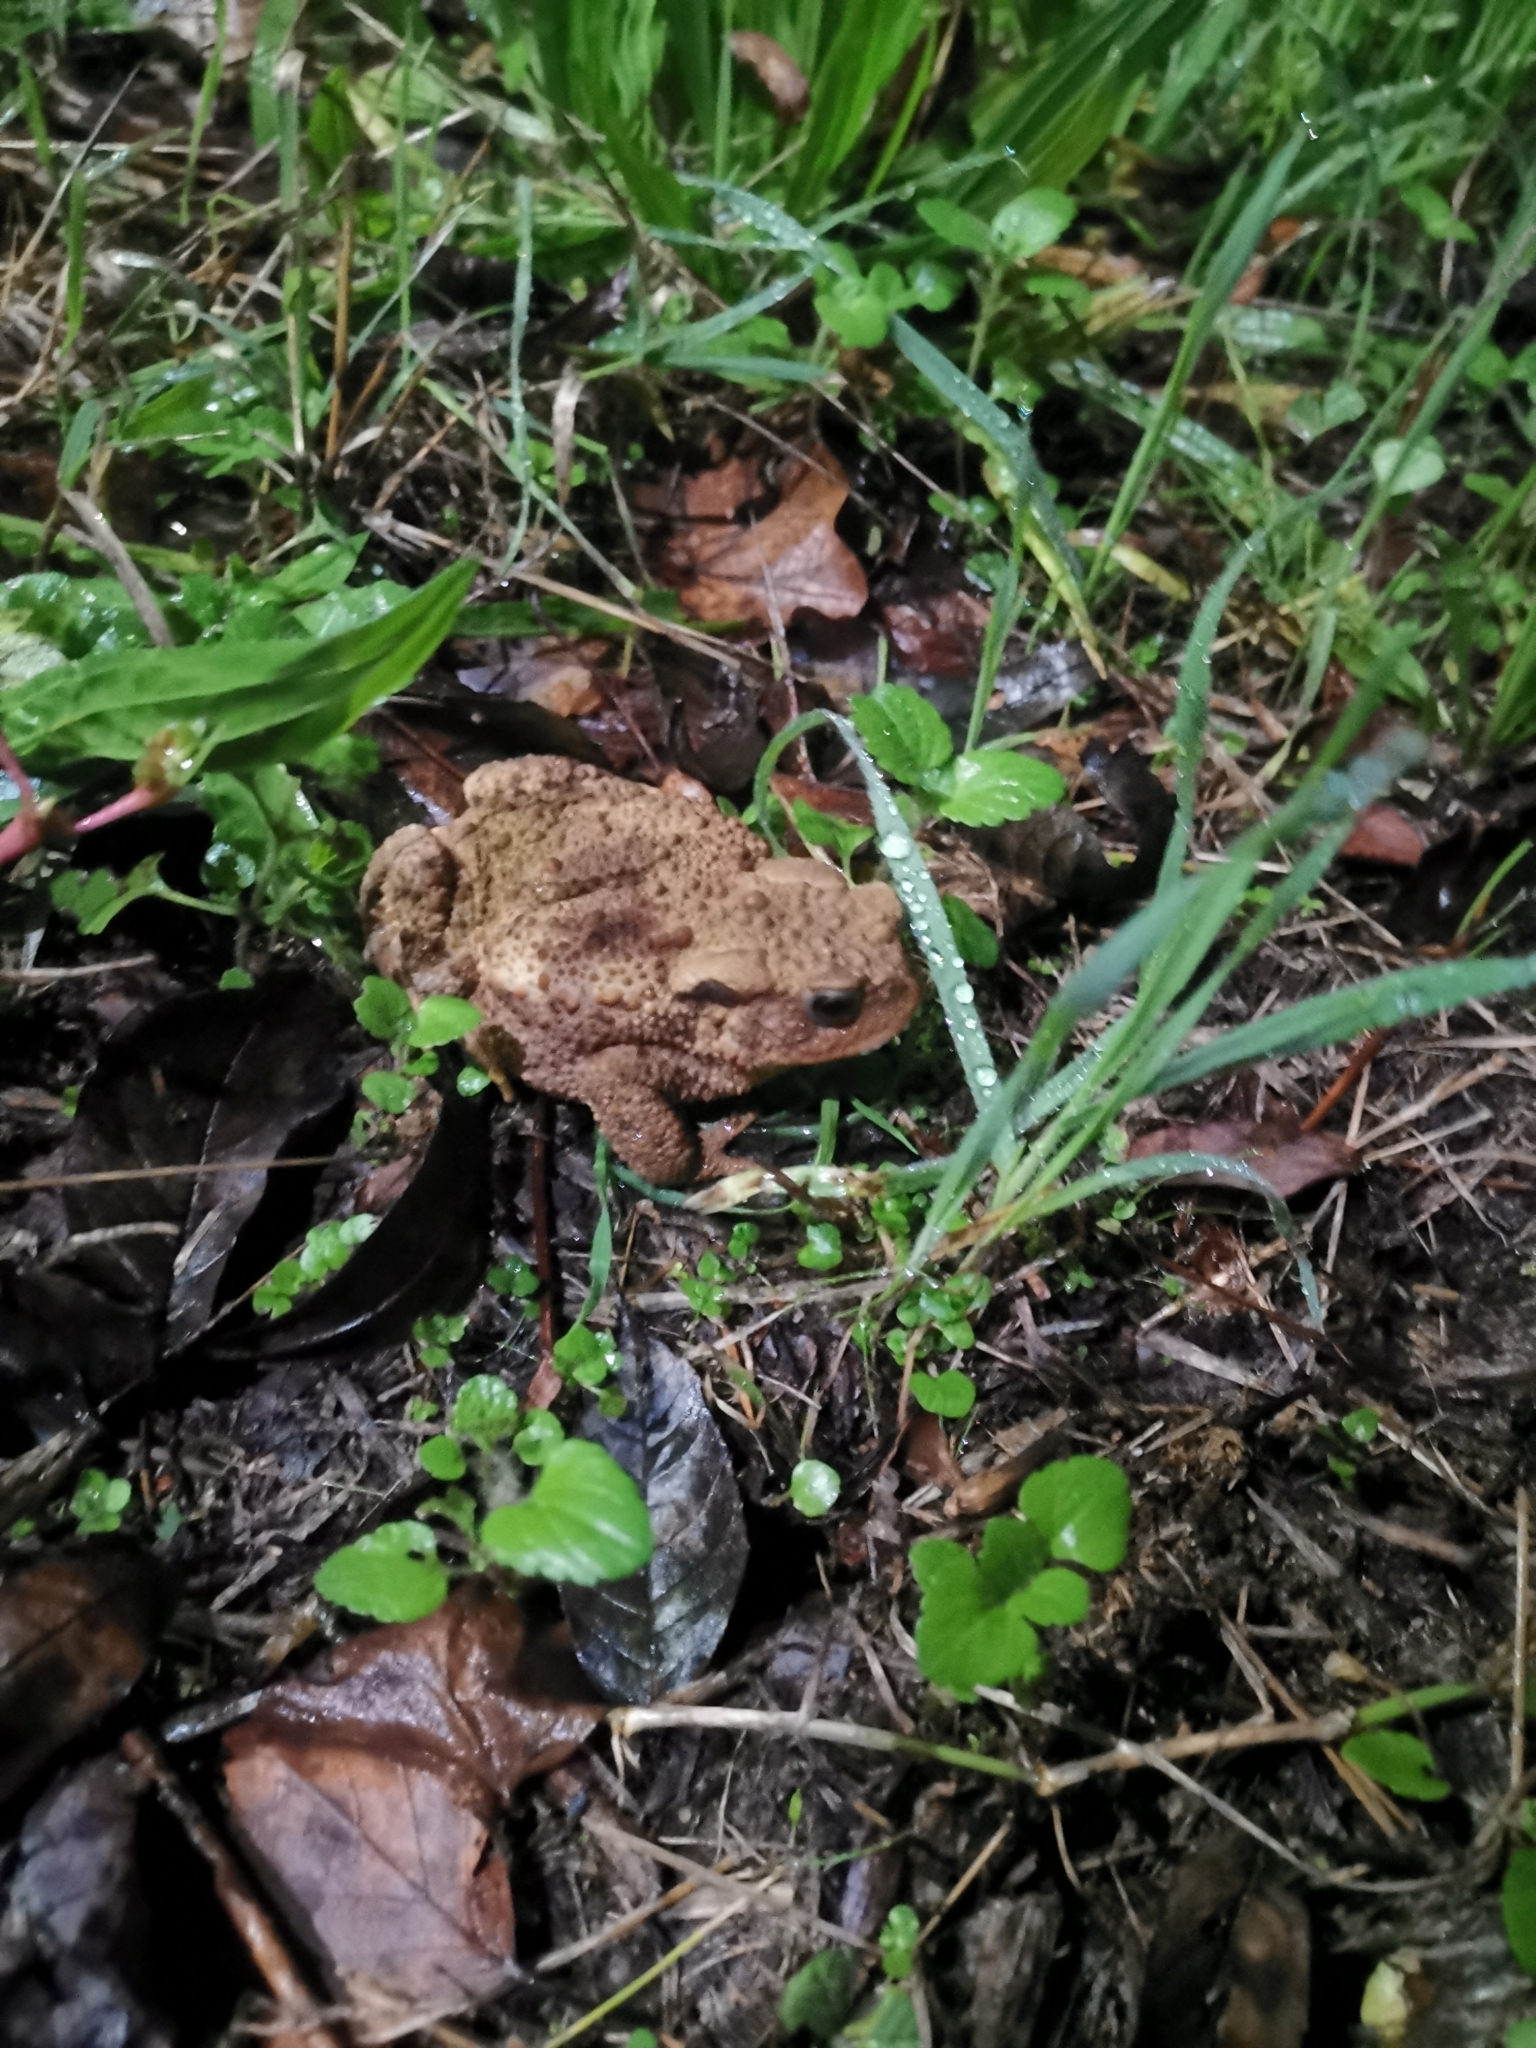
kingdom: Animalia
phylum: Chordata
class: Amphibia
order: Anura
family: Bufonidae
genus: Bufo
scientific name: Bufo bufo
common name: Common toad
